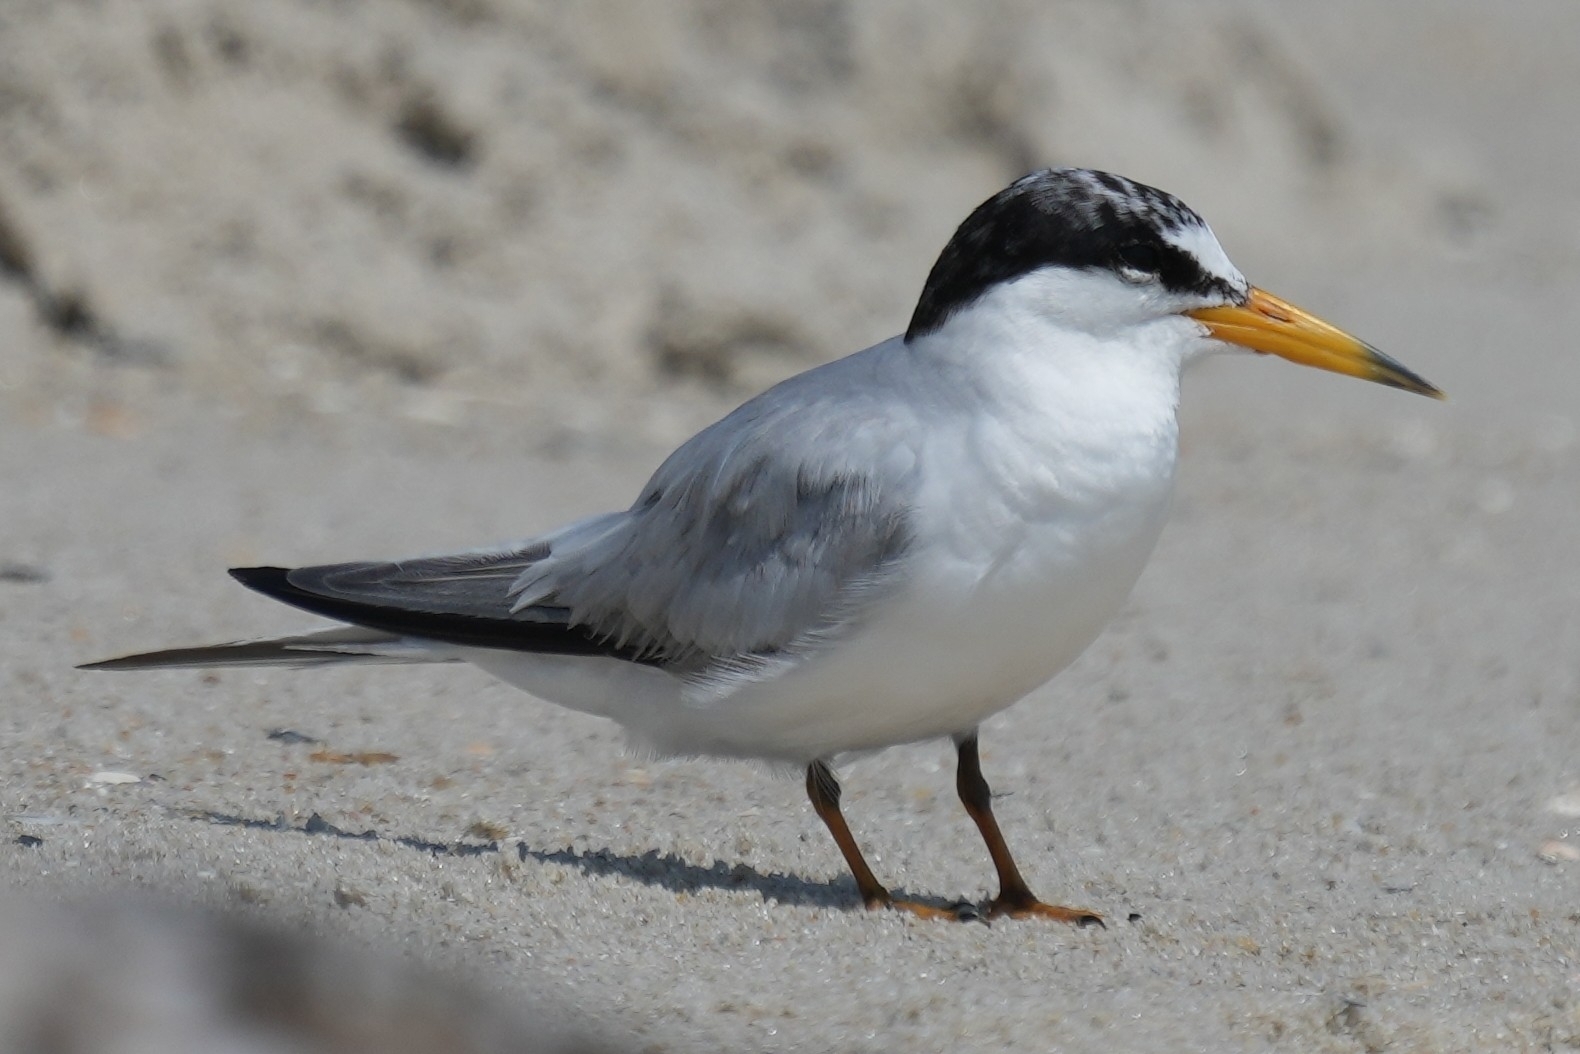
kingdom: Animalia
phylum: Chordata
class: Aves
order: Charadriiformes
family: Laridae
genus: Sternula
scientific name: Sternula antillarum
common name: Least tern
